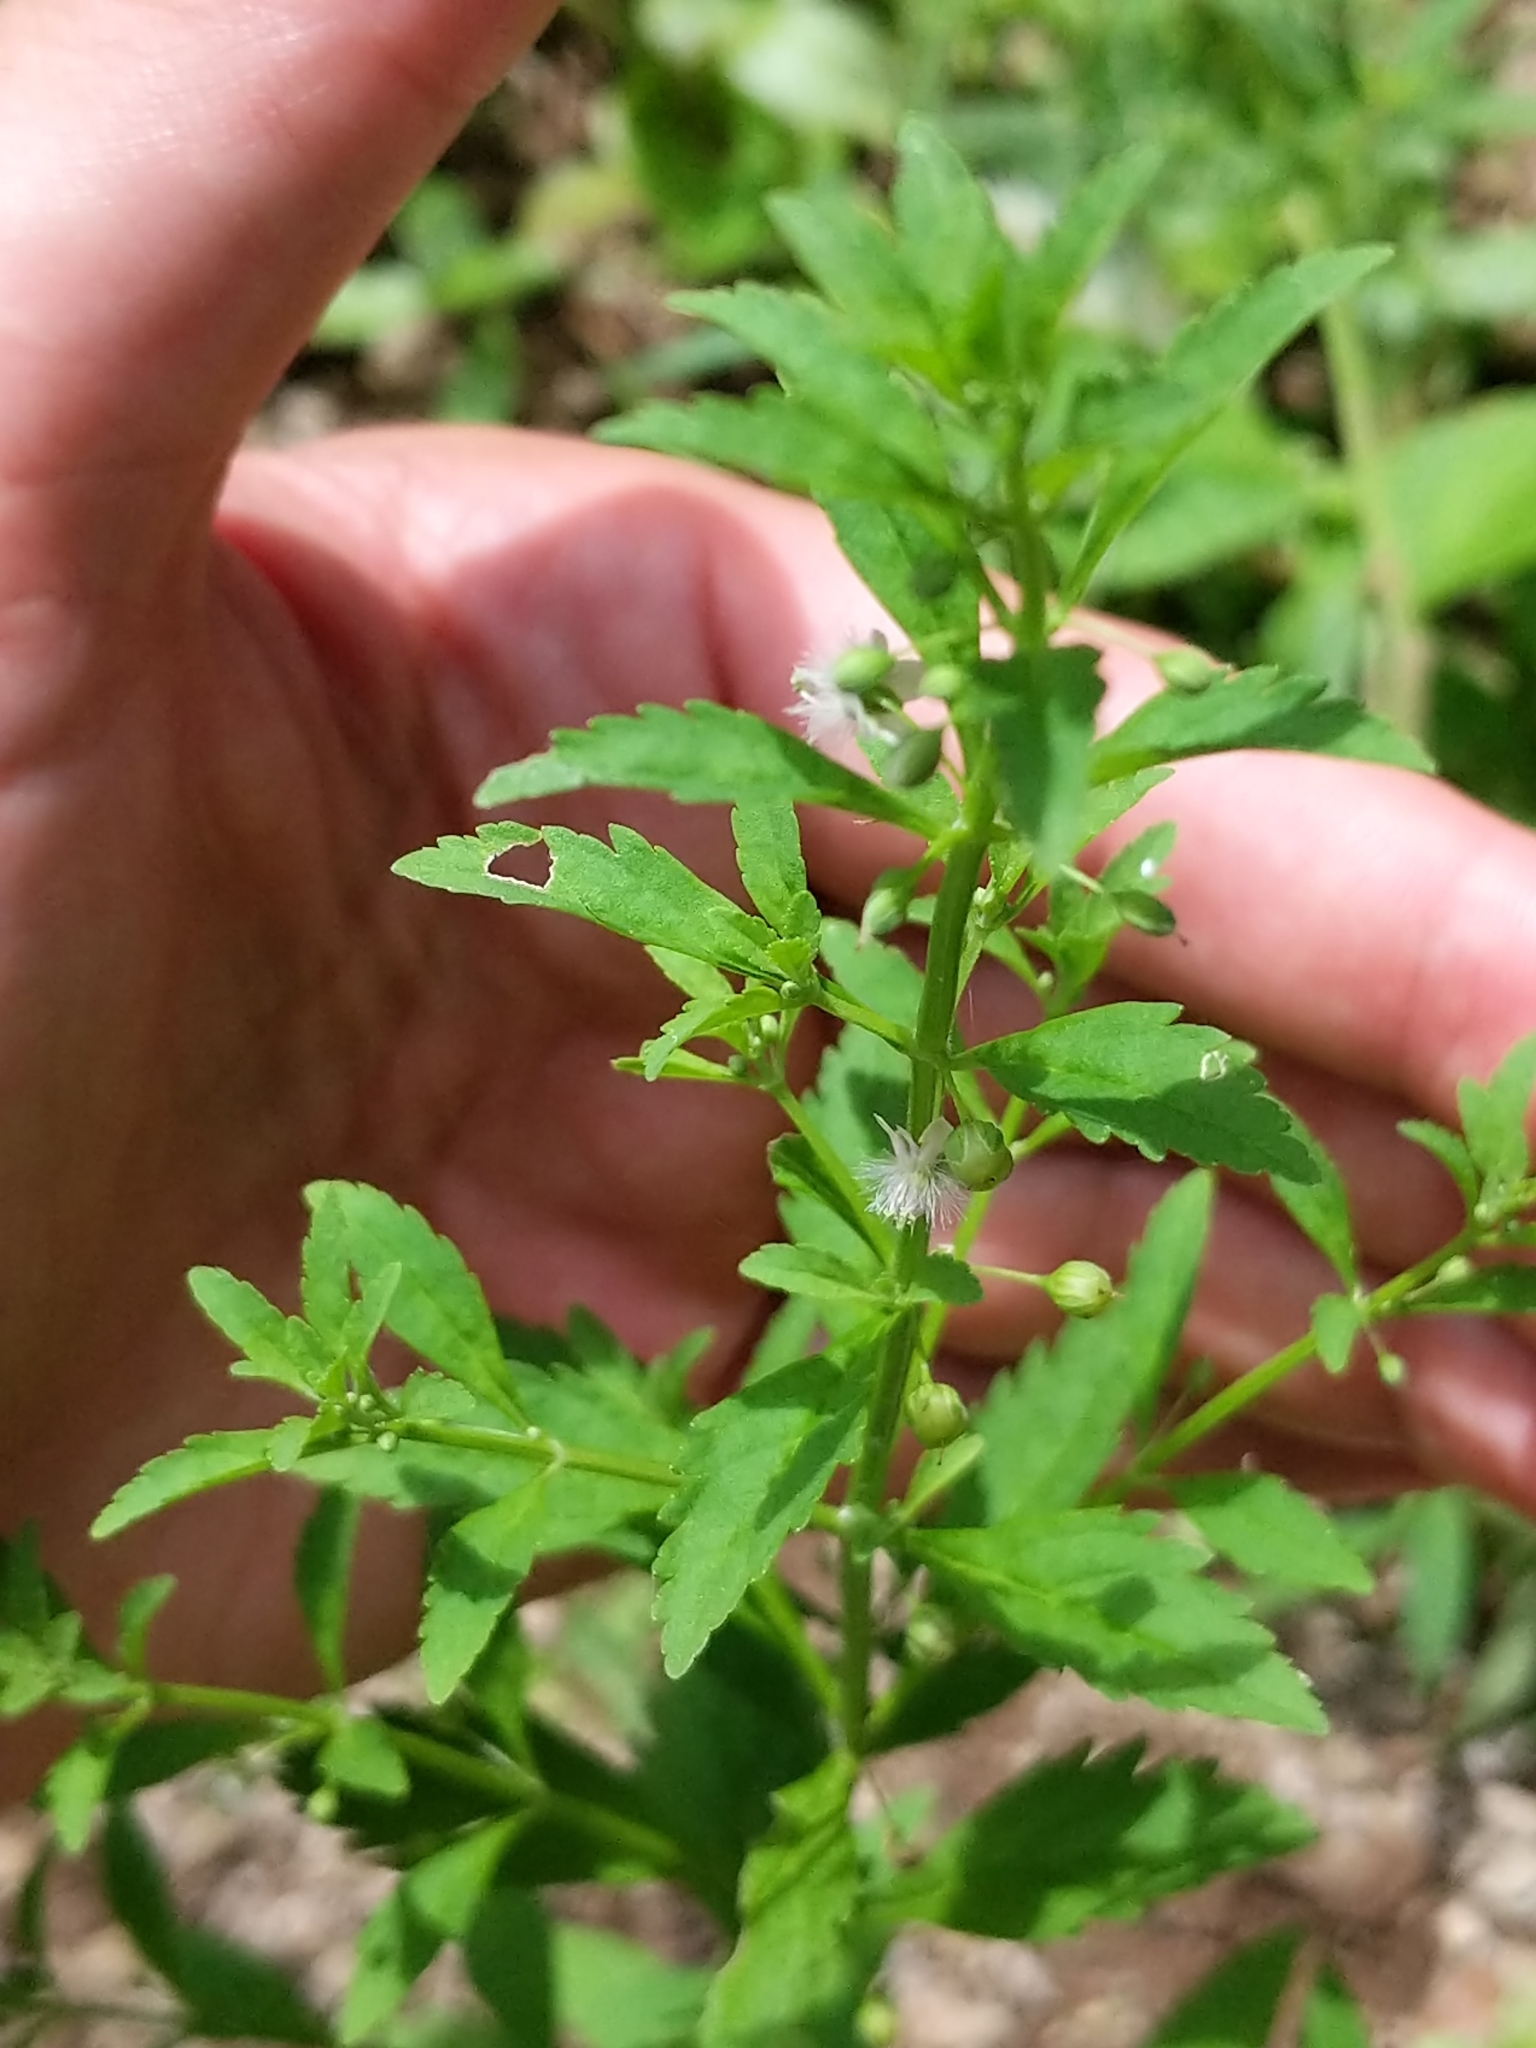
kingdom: Plantae
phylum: Tracheophyta
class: Magnoliopsida
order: Lamiales
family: Plantaginaceae
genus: Scoparia
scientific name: Scoparia dulcis
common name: Scoparia-weed
